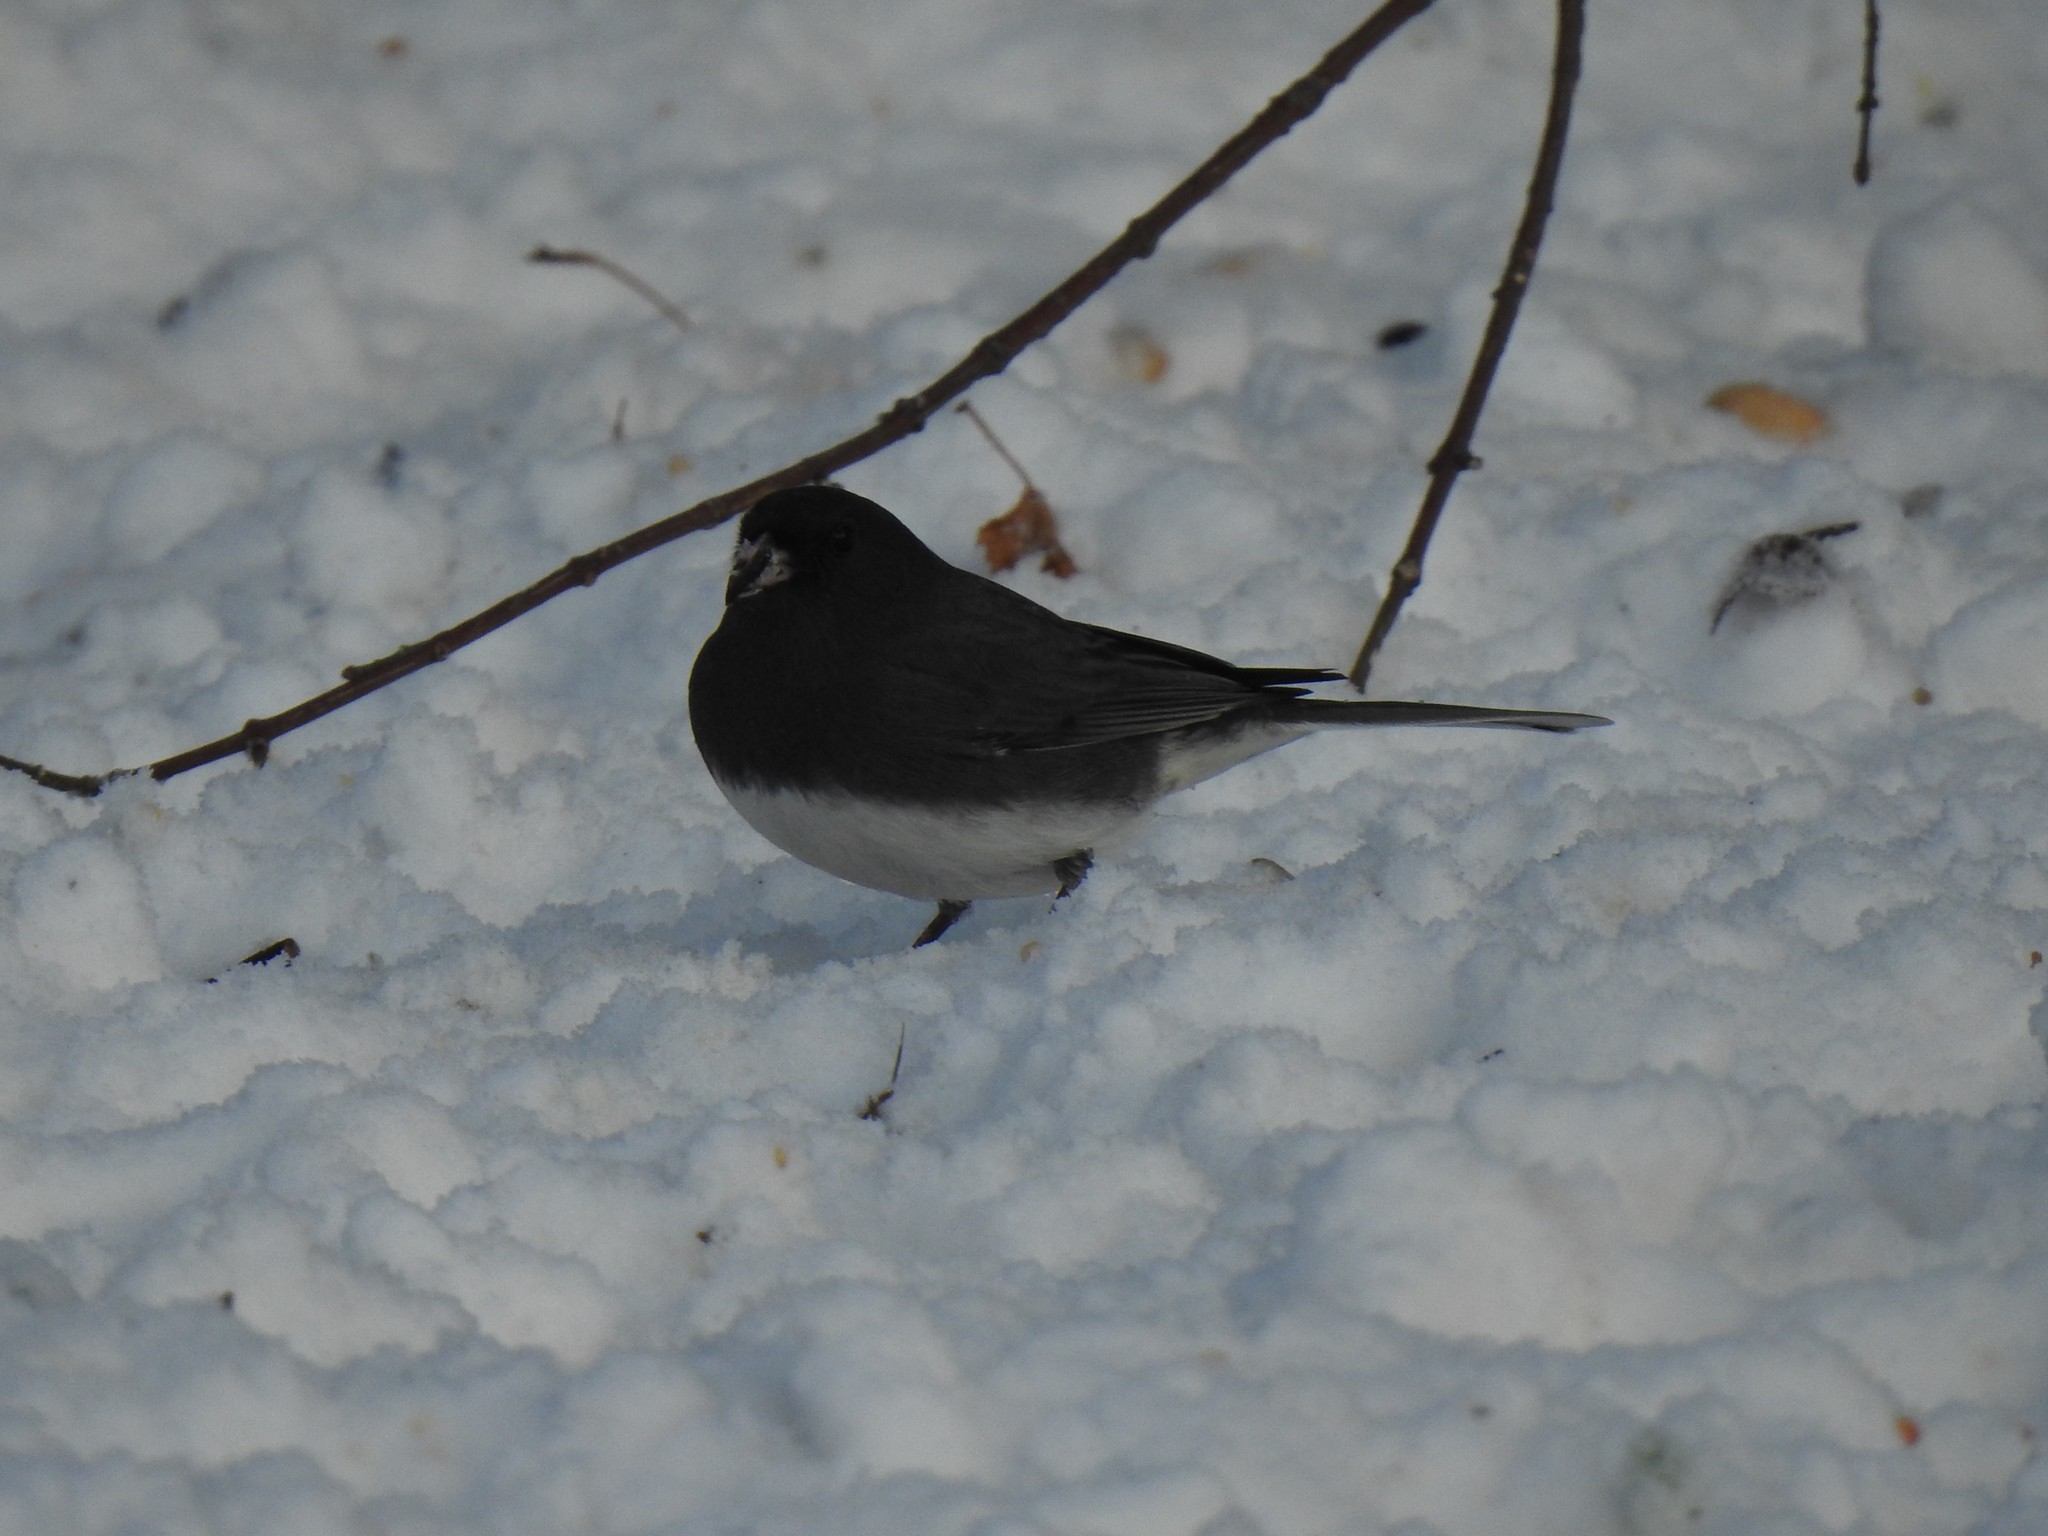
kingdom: Animalia
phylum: Chordata
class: Aves
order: Passeriformes
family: Passerellidae
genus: Junco
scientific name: Junco hyemalis
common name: Dark-eyed junco
